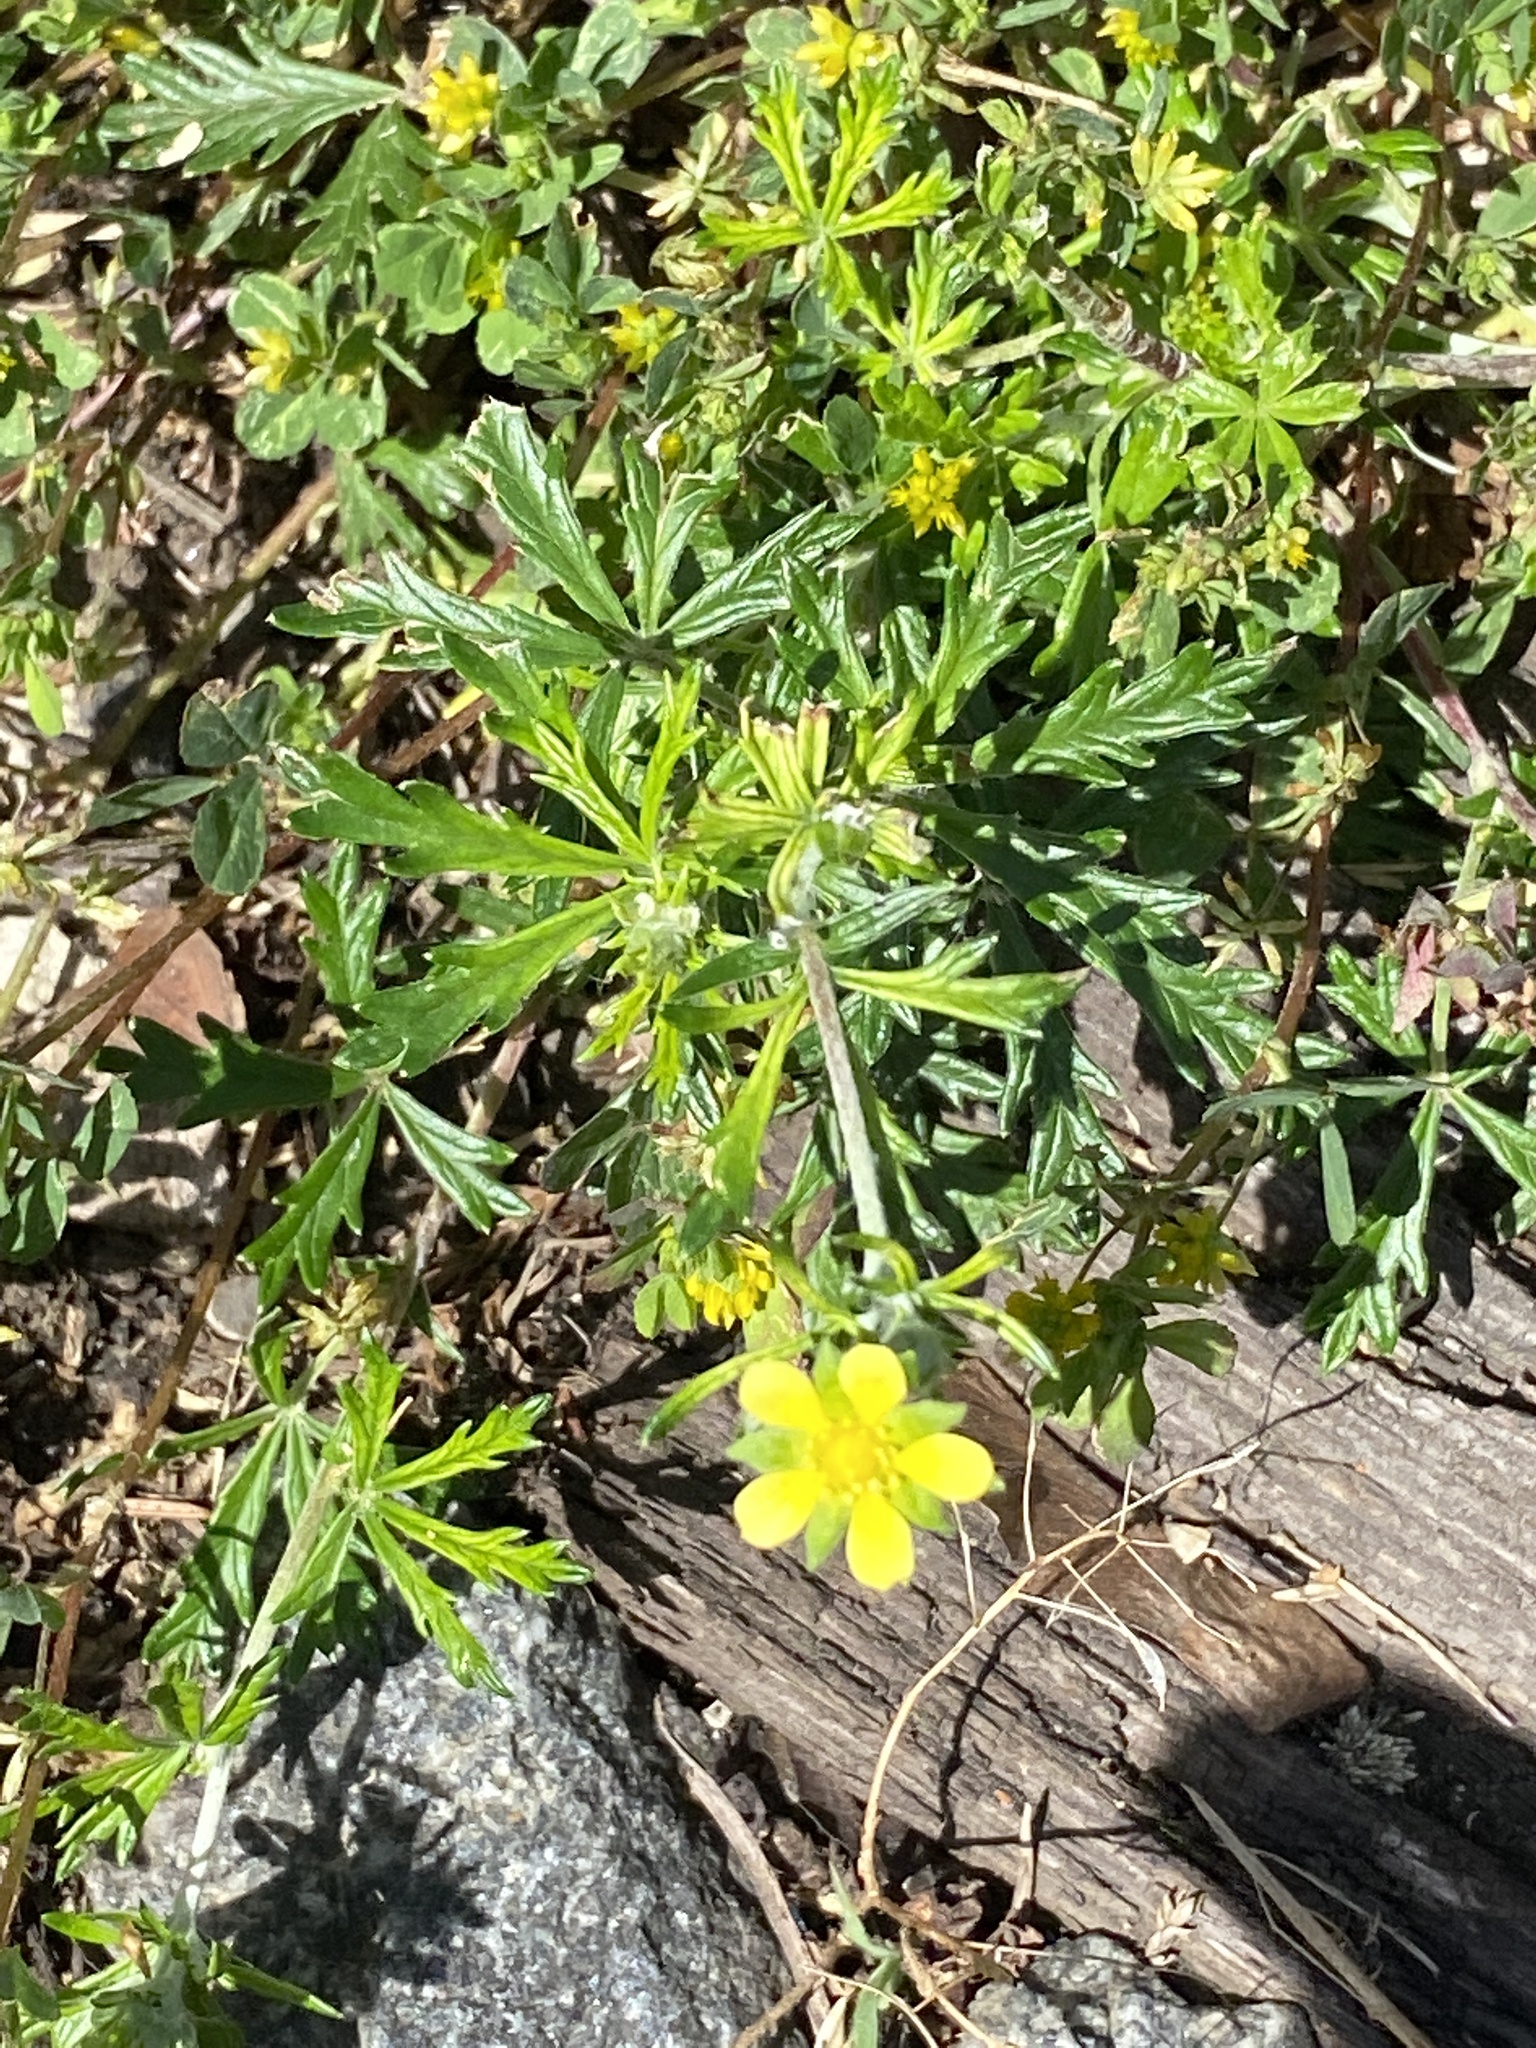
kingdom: Plantae
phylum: Tracheophyta
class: Magnoliopsida
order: Rosales
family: Rosaceae
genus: Potentilla
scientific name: Potentilla argentea
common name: Hoary cinquefoil
